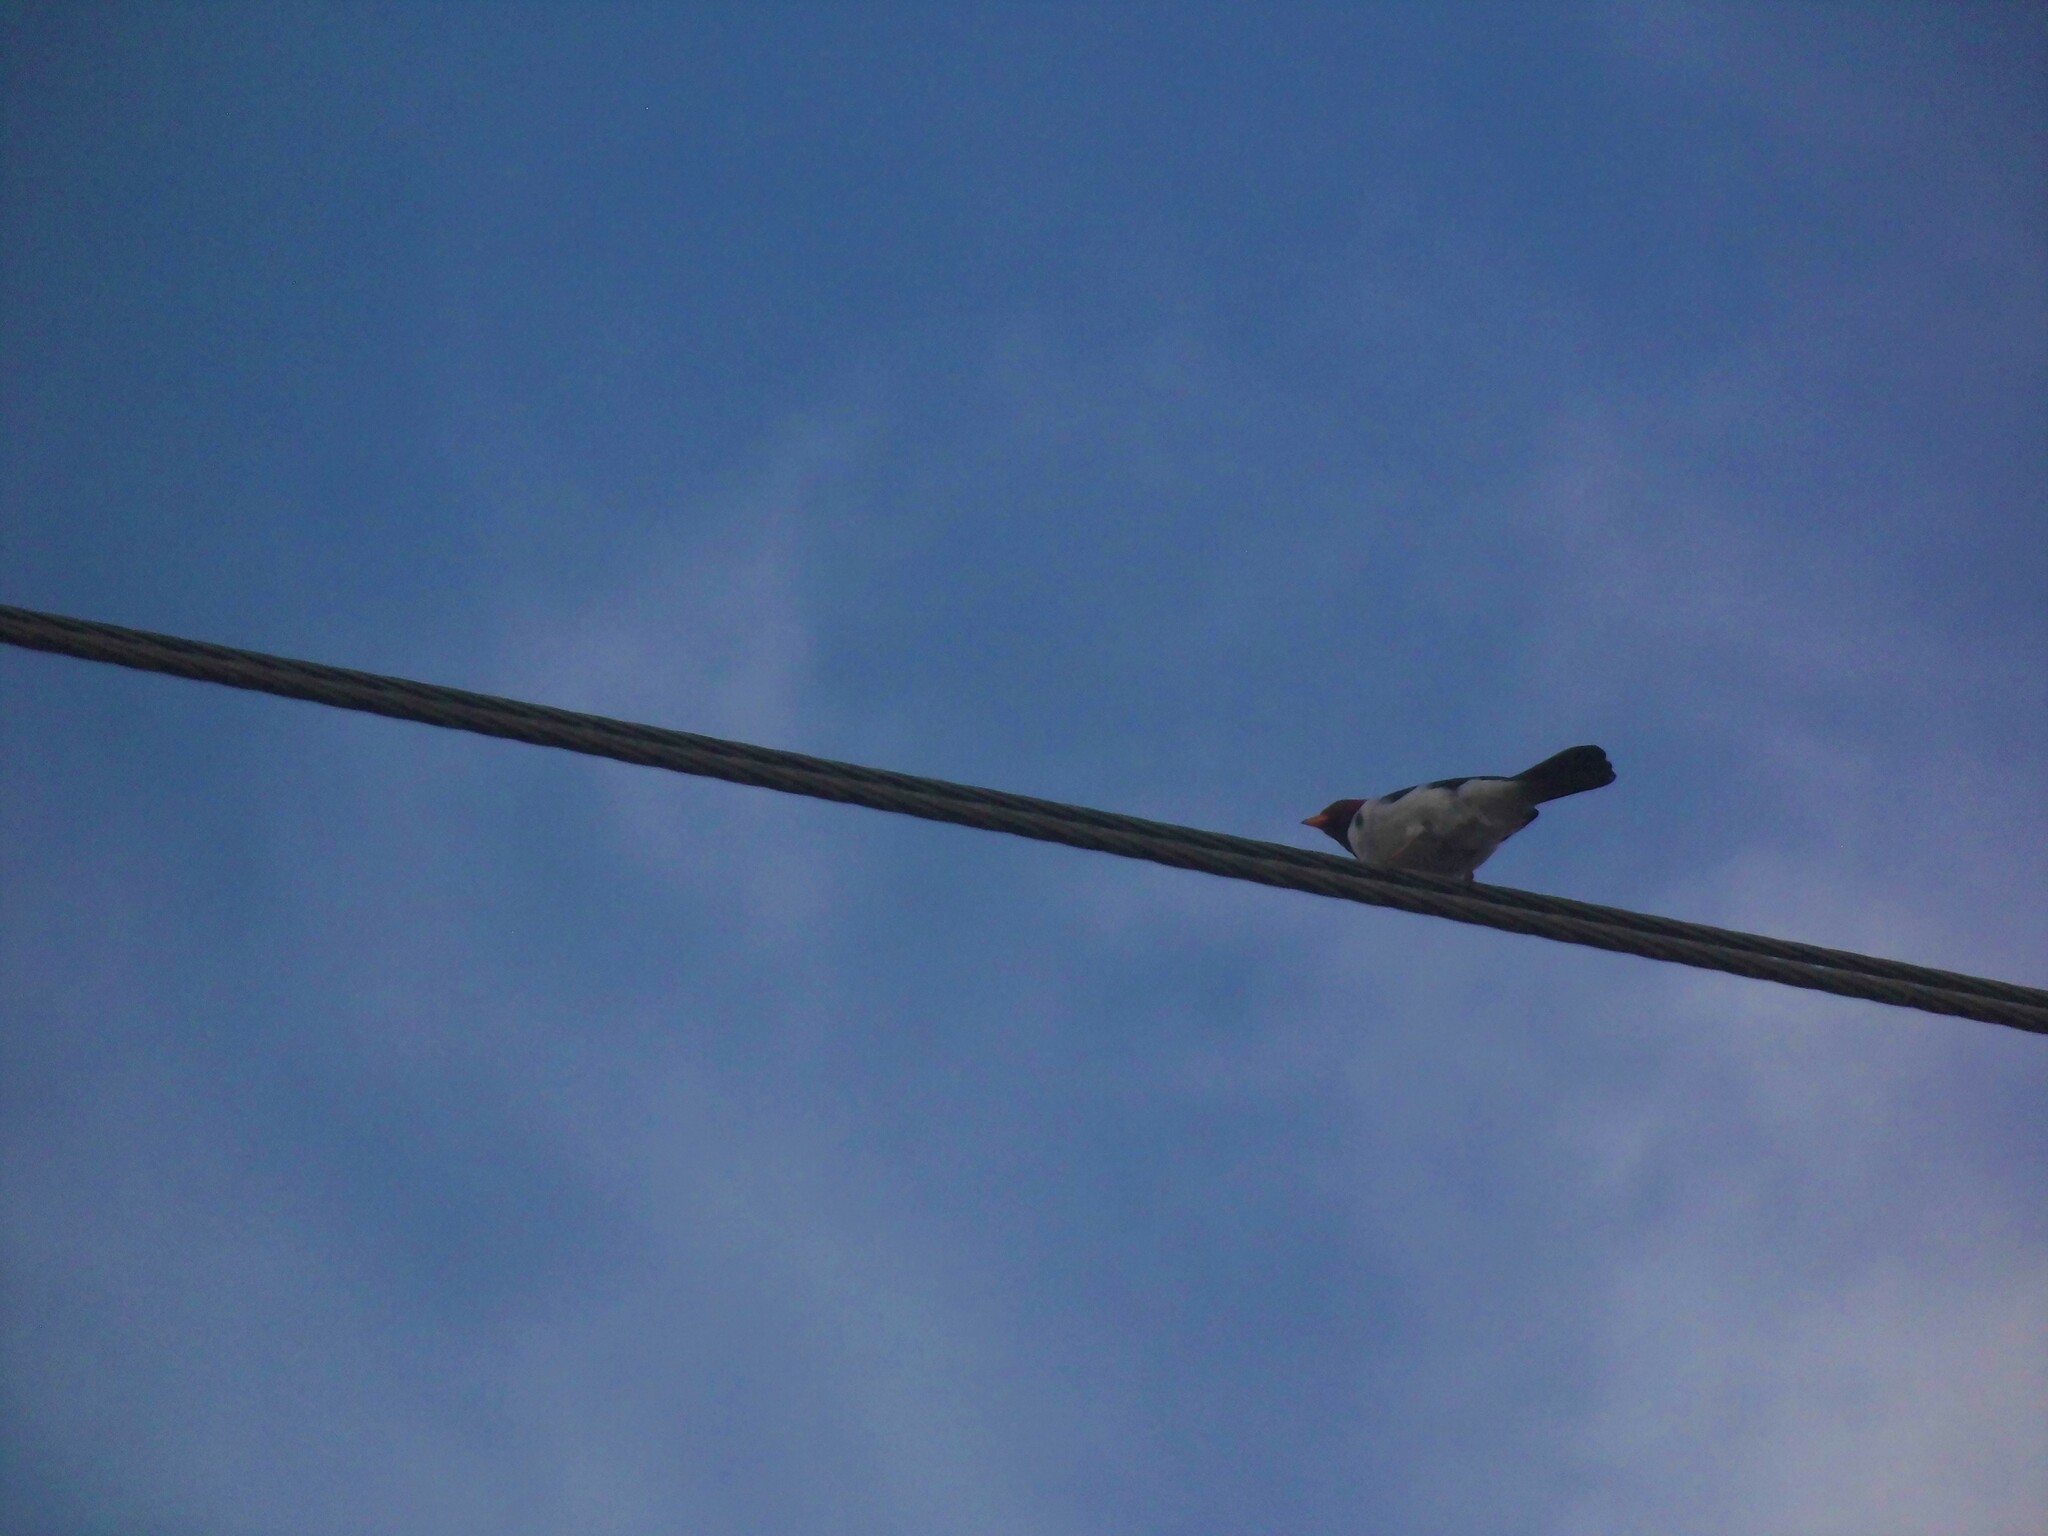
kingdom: Animalia
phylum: Chordata
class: Aves
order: Passeriformes
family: Thraupidae
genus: Paroaria
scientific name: Paroaria capitata
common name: Yellow-billed cardinal
